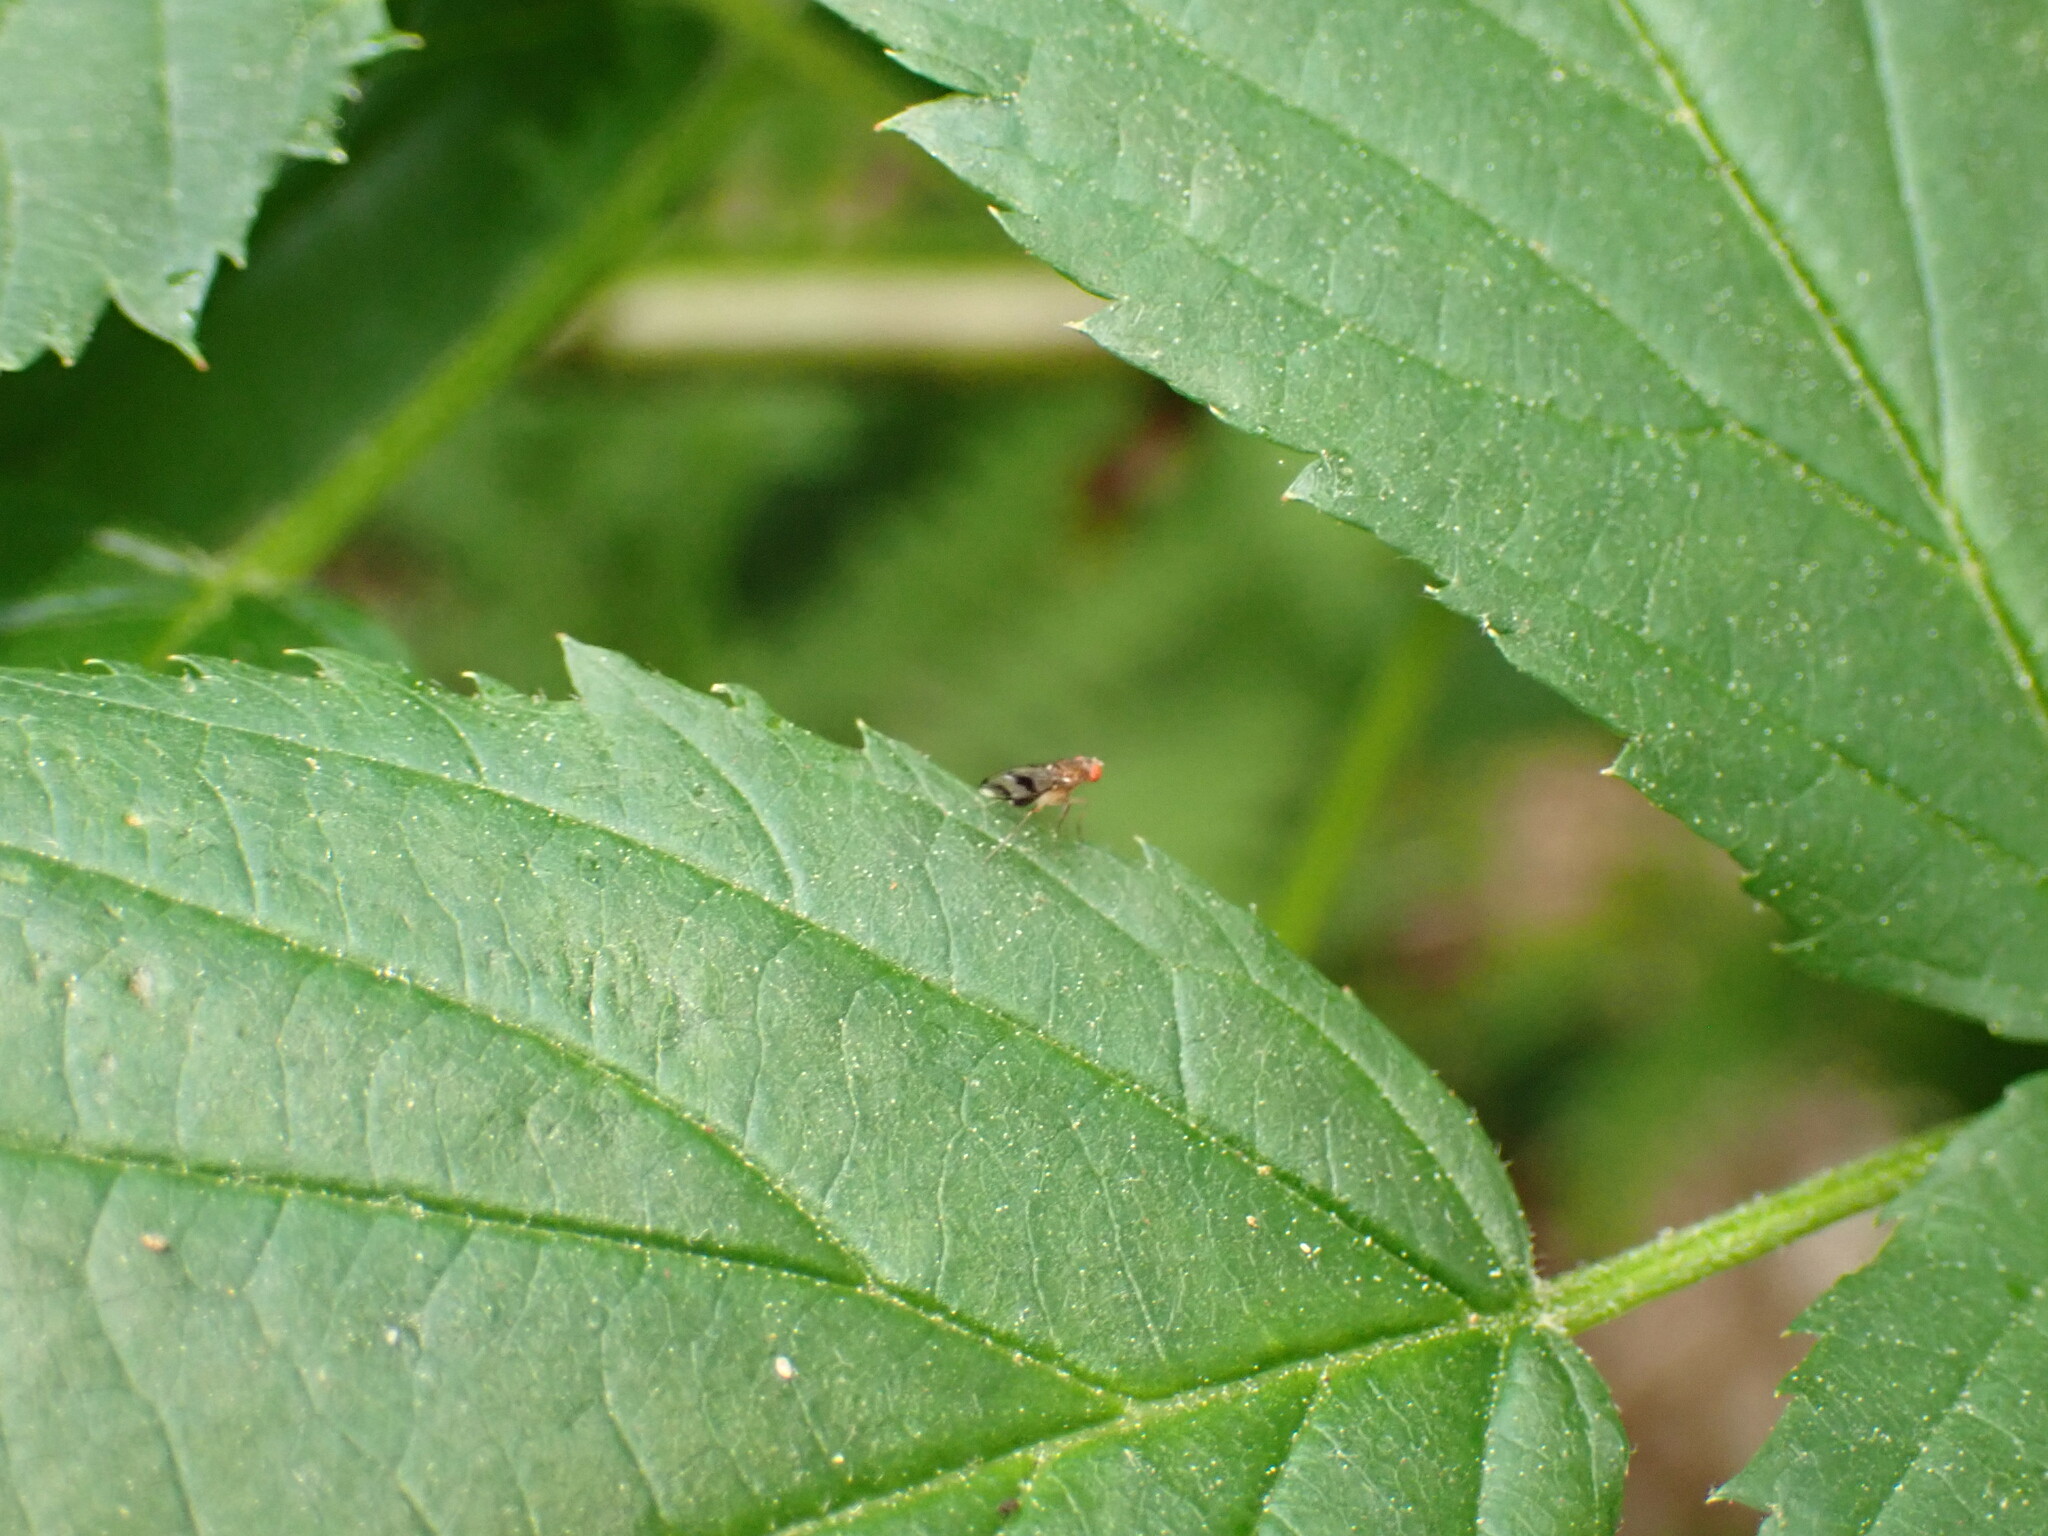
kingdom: Animalia
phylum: Arthropoda
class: Insecta
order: Diptera
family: Drosophilidae
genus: Chymomyza
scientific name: Chymomyza amoena
